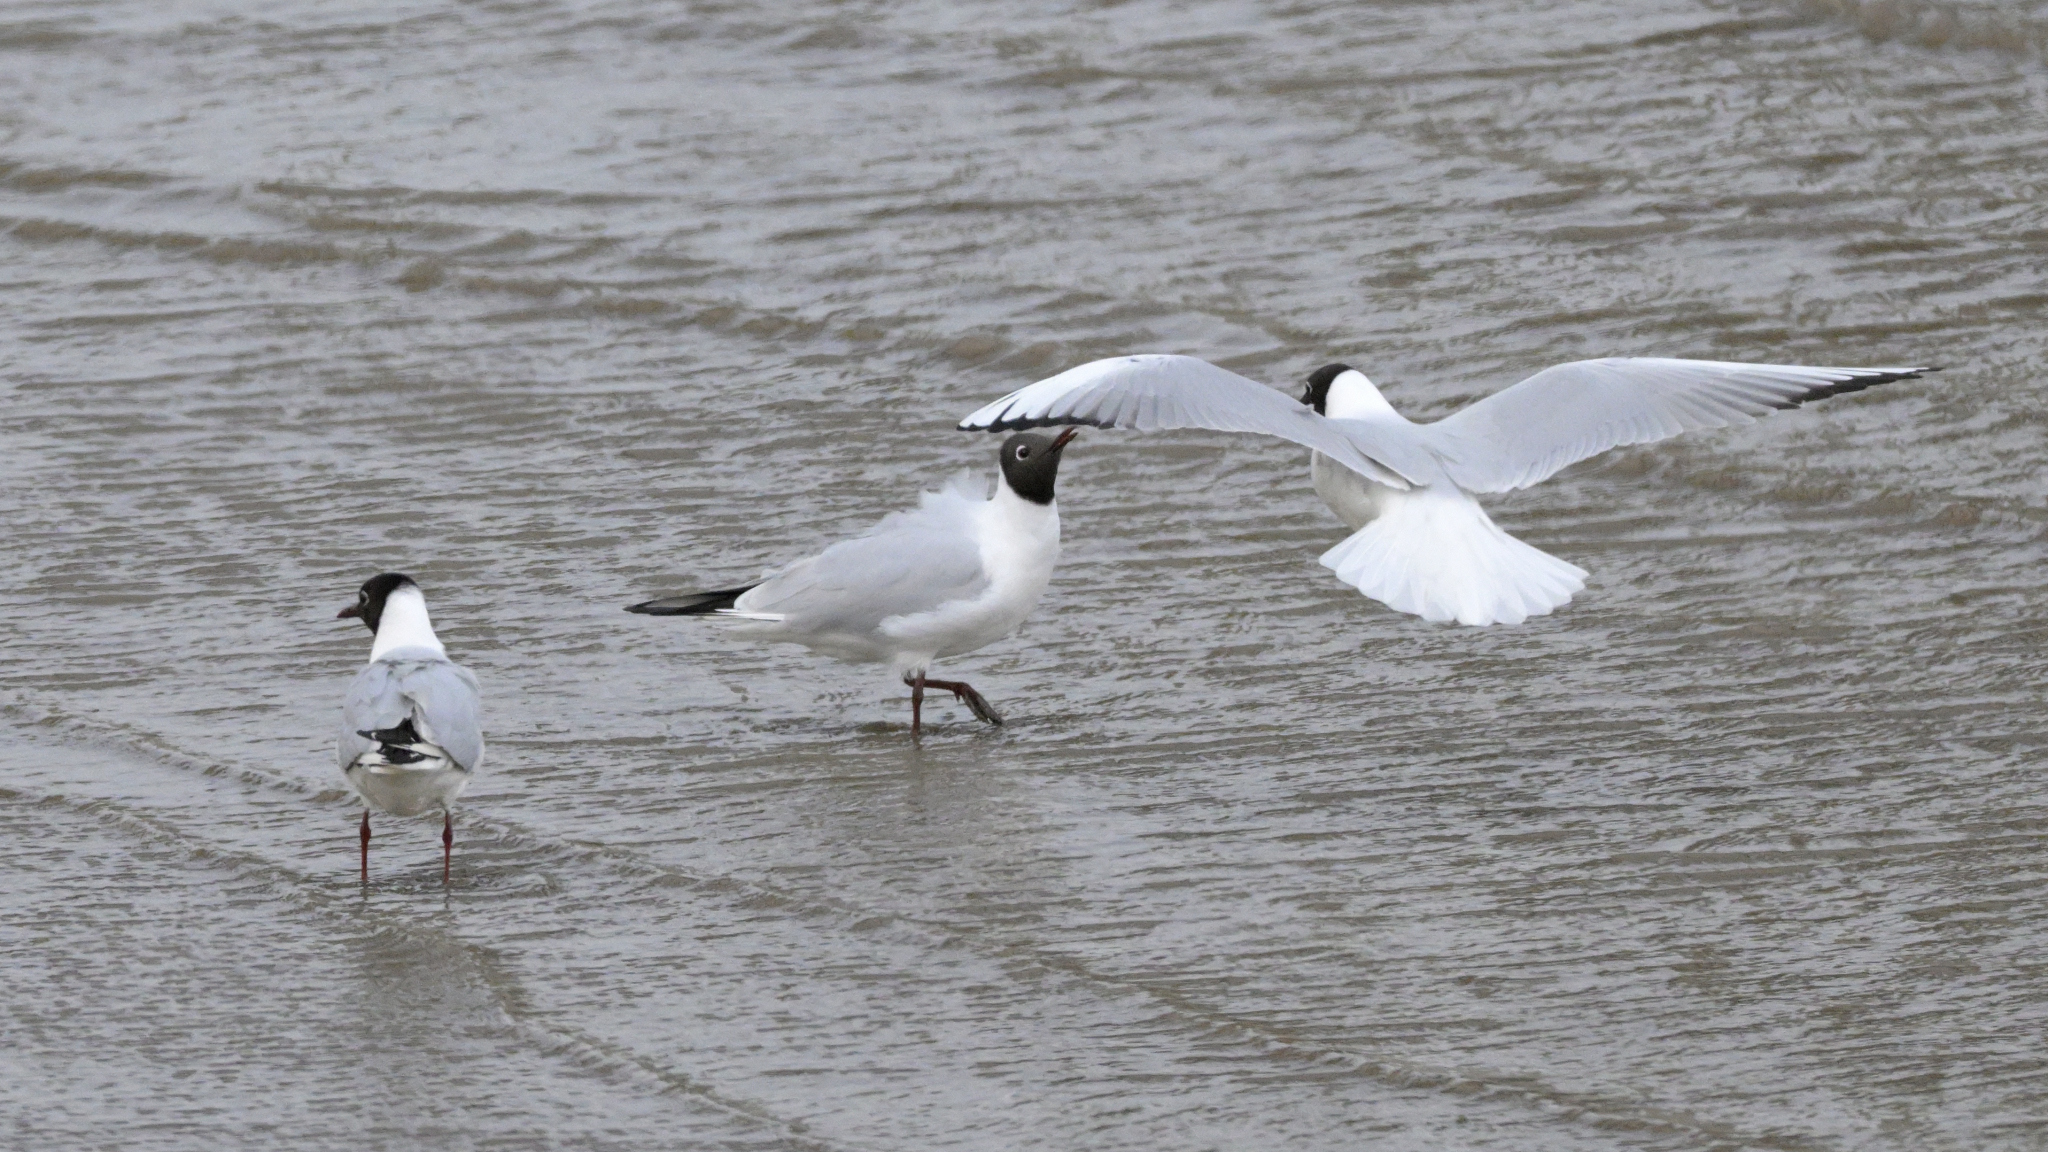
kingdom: Animalia
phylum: Chordata
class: Aves
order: Charadriiformes
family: Laridae
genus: Chroicocephalus
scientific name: Chroicocephalus ridibundus
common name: Black-headed gull
